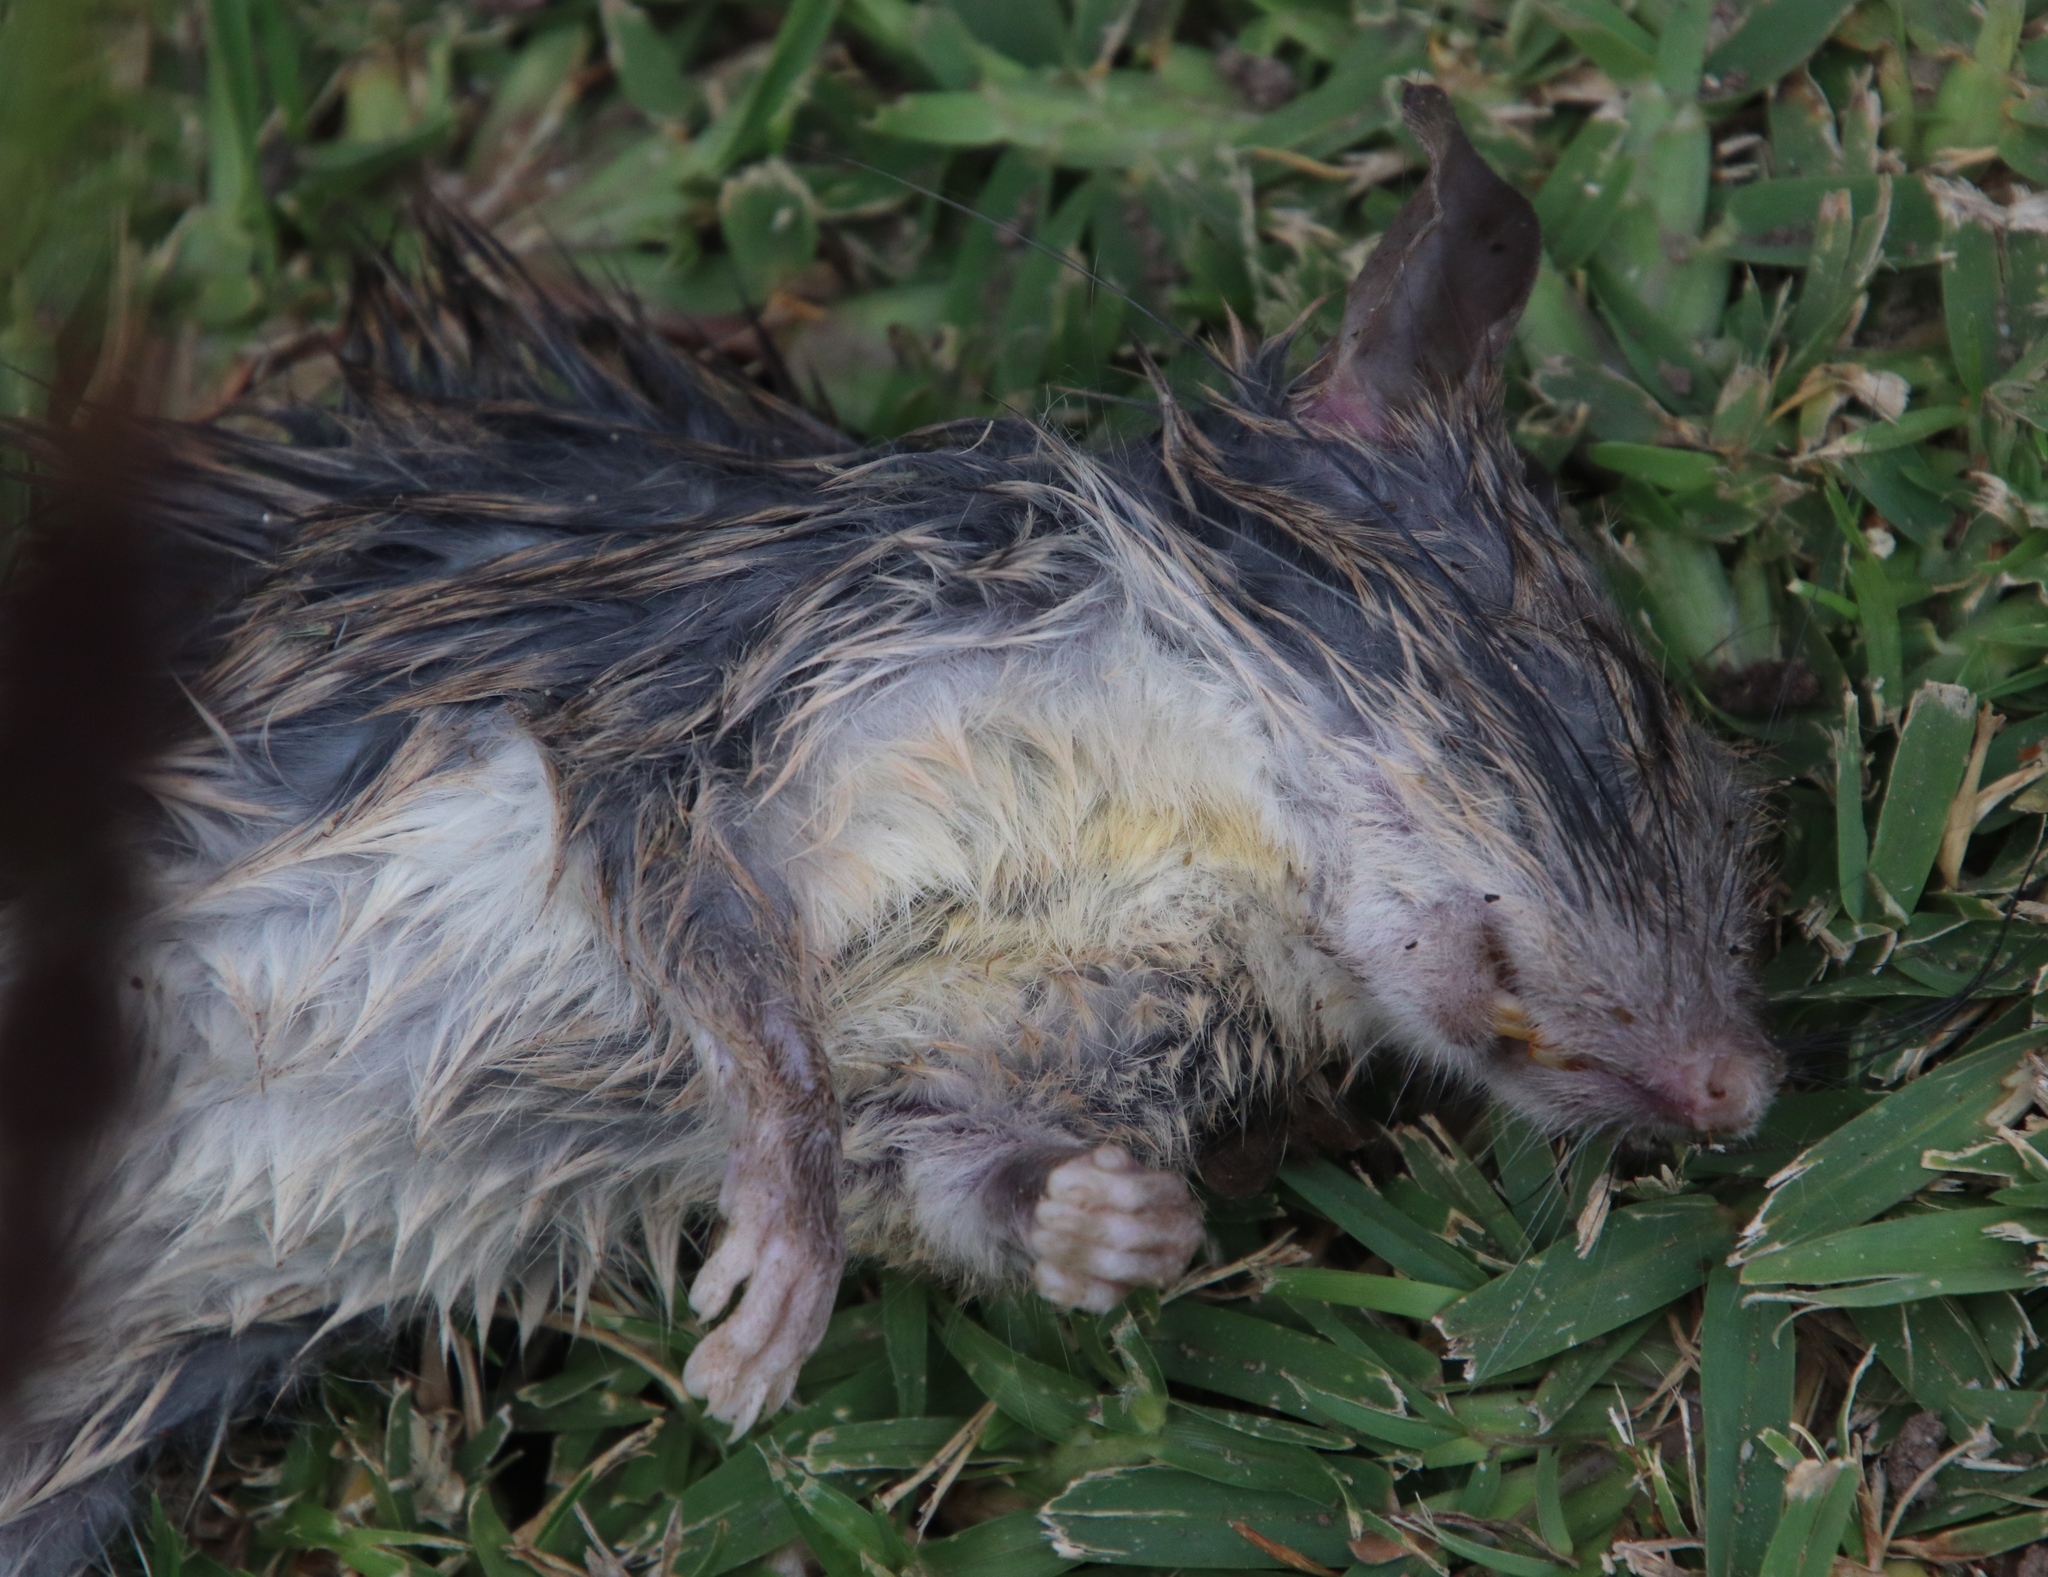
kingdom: Animalia
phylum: Chordata
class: Mammalia
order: Rodentia
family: Muridae
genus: Rattus
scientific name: Rattus rattus
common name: Black rat
